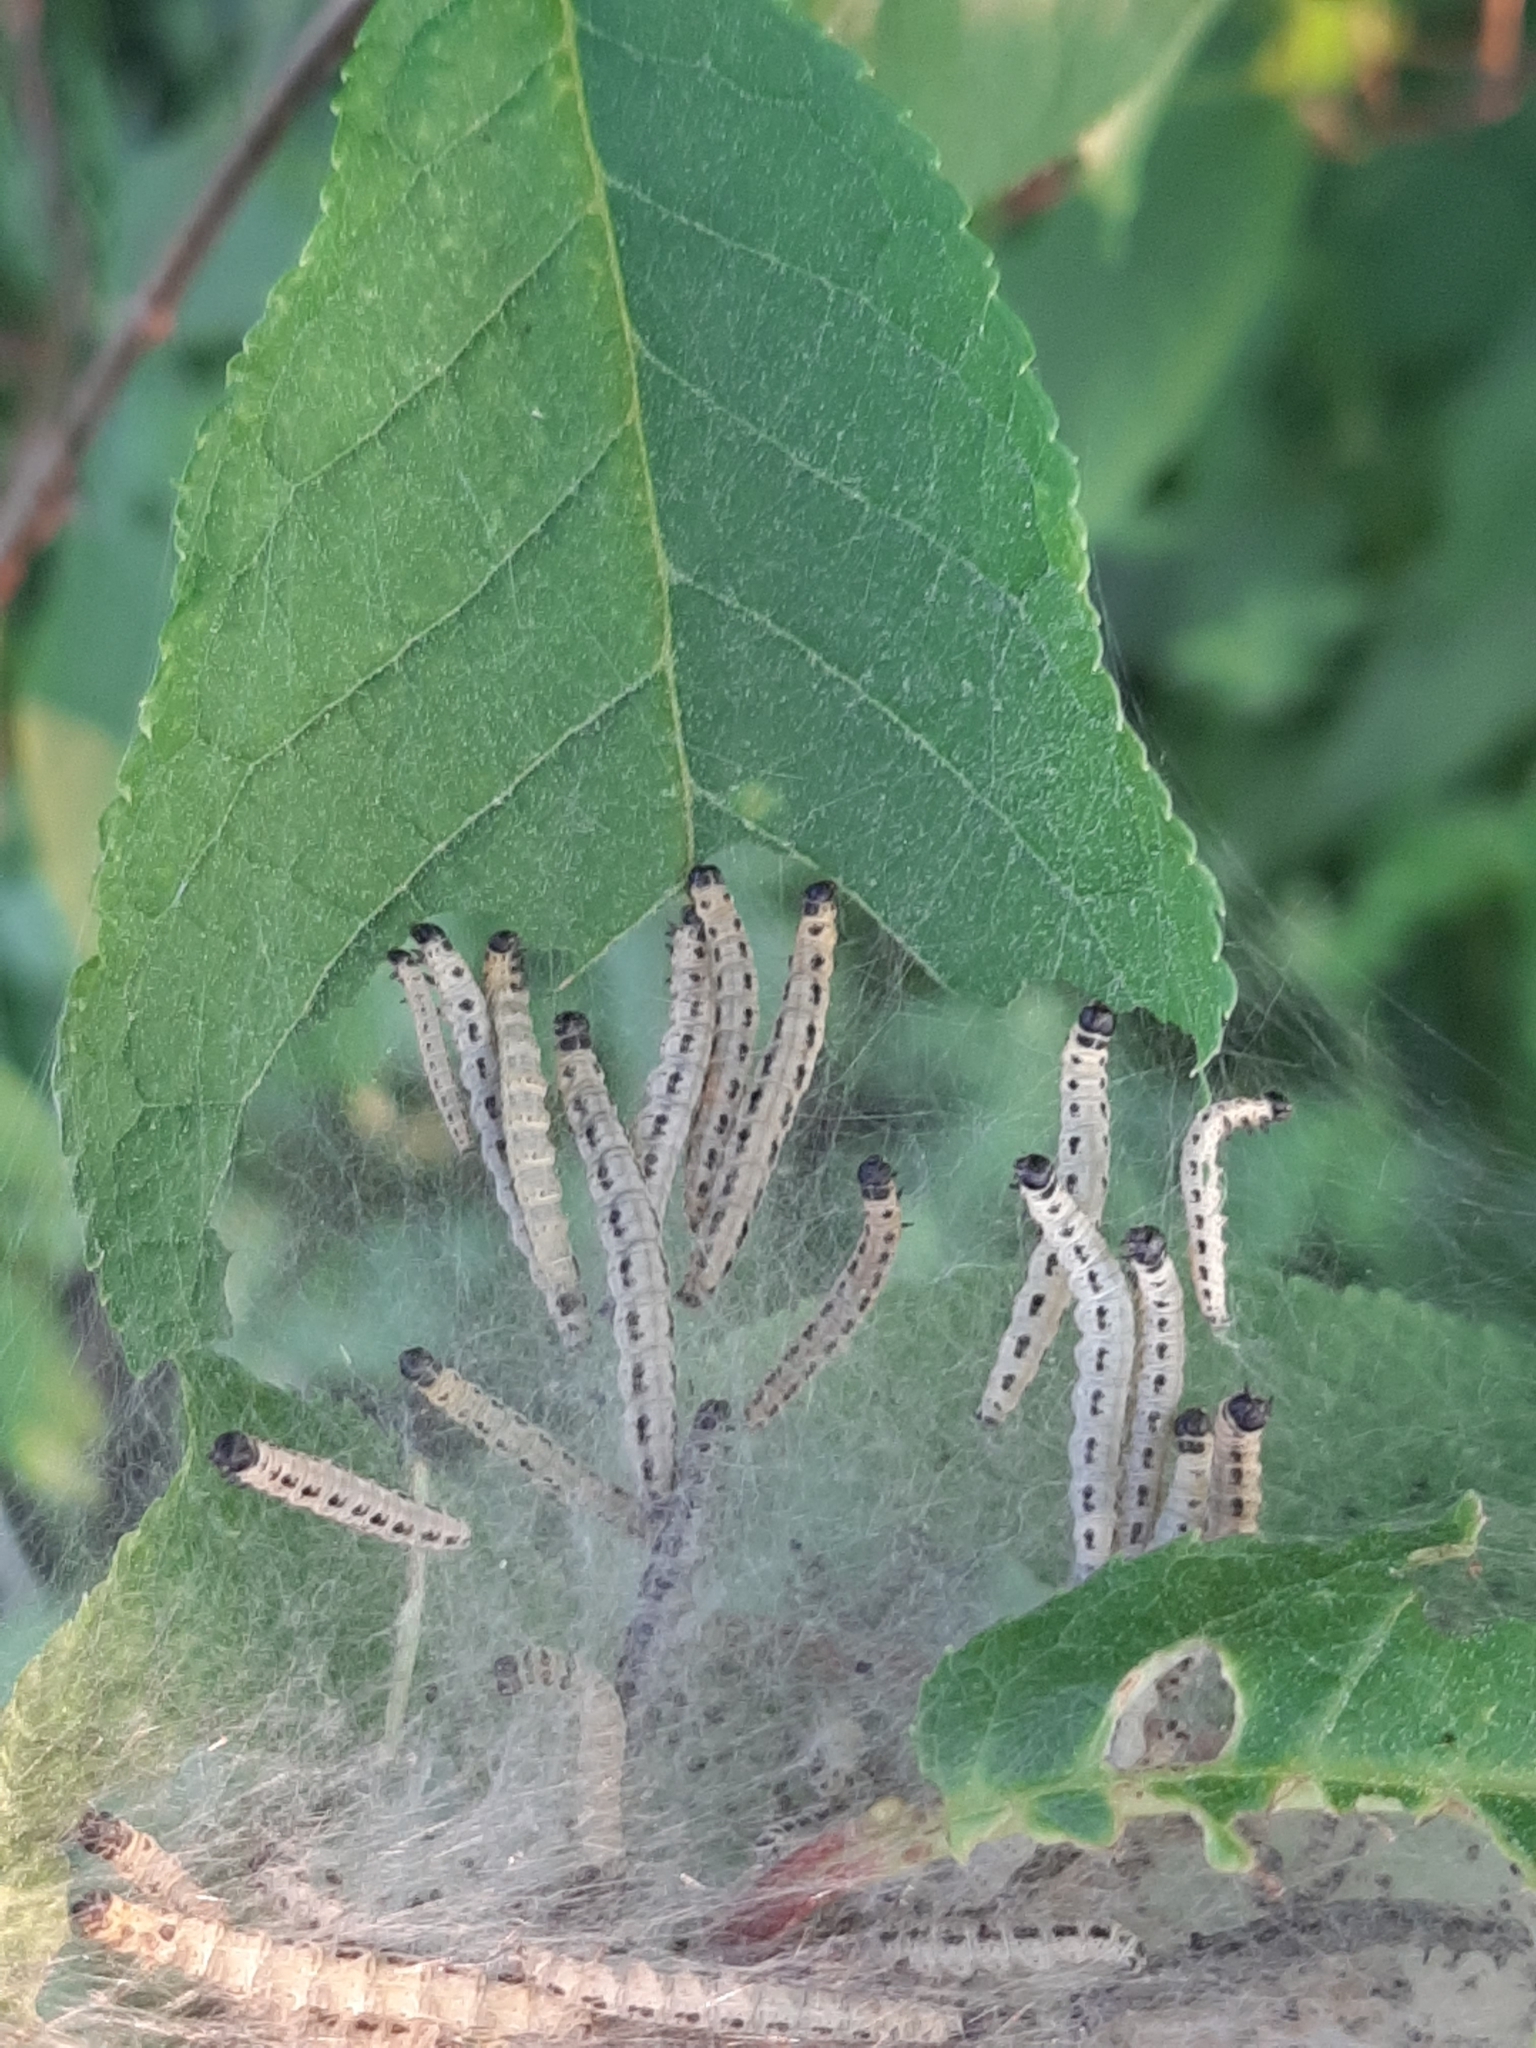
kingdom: Animalia
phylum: Arthropoda
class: Insecta
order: Lepidoptera
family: Yponomeutidae
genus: Yponomeuta
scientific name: Yponomeuta evonymella
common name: Bird-cherry ermine
